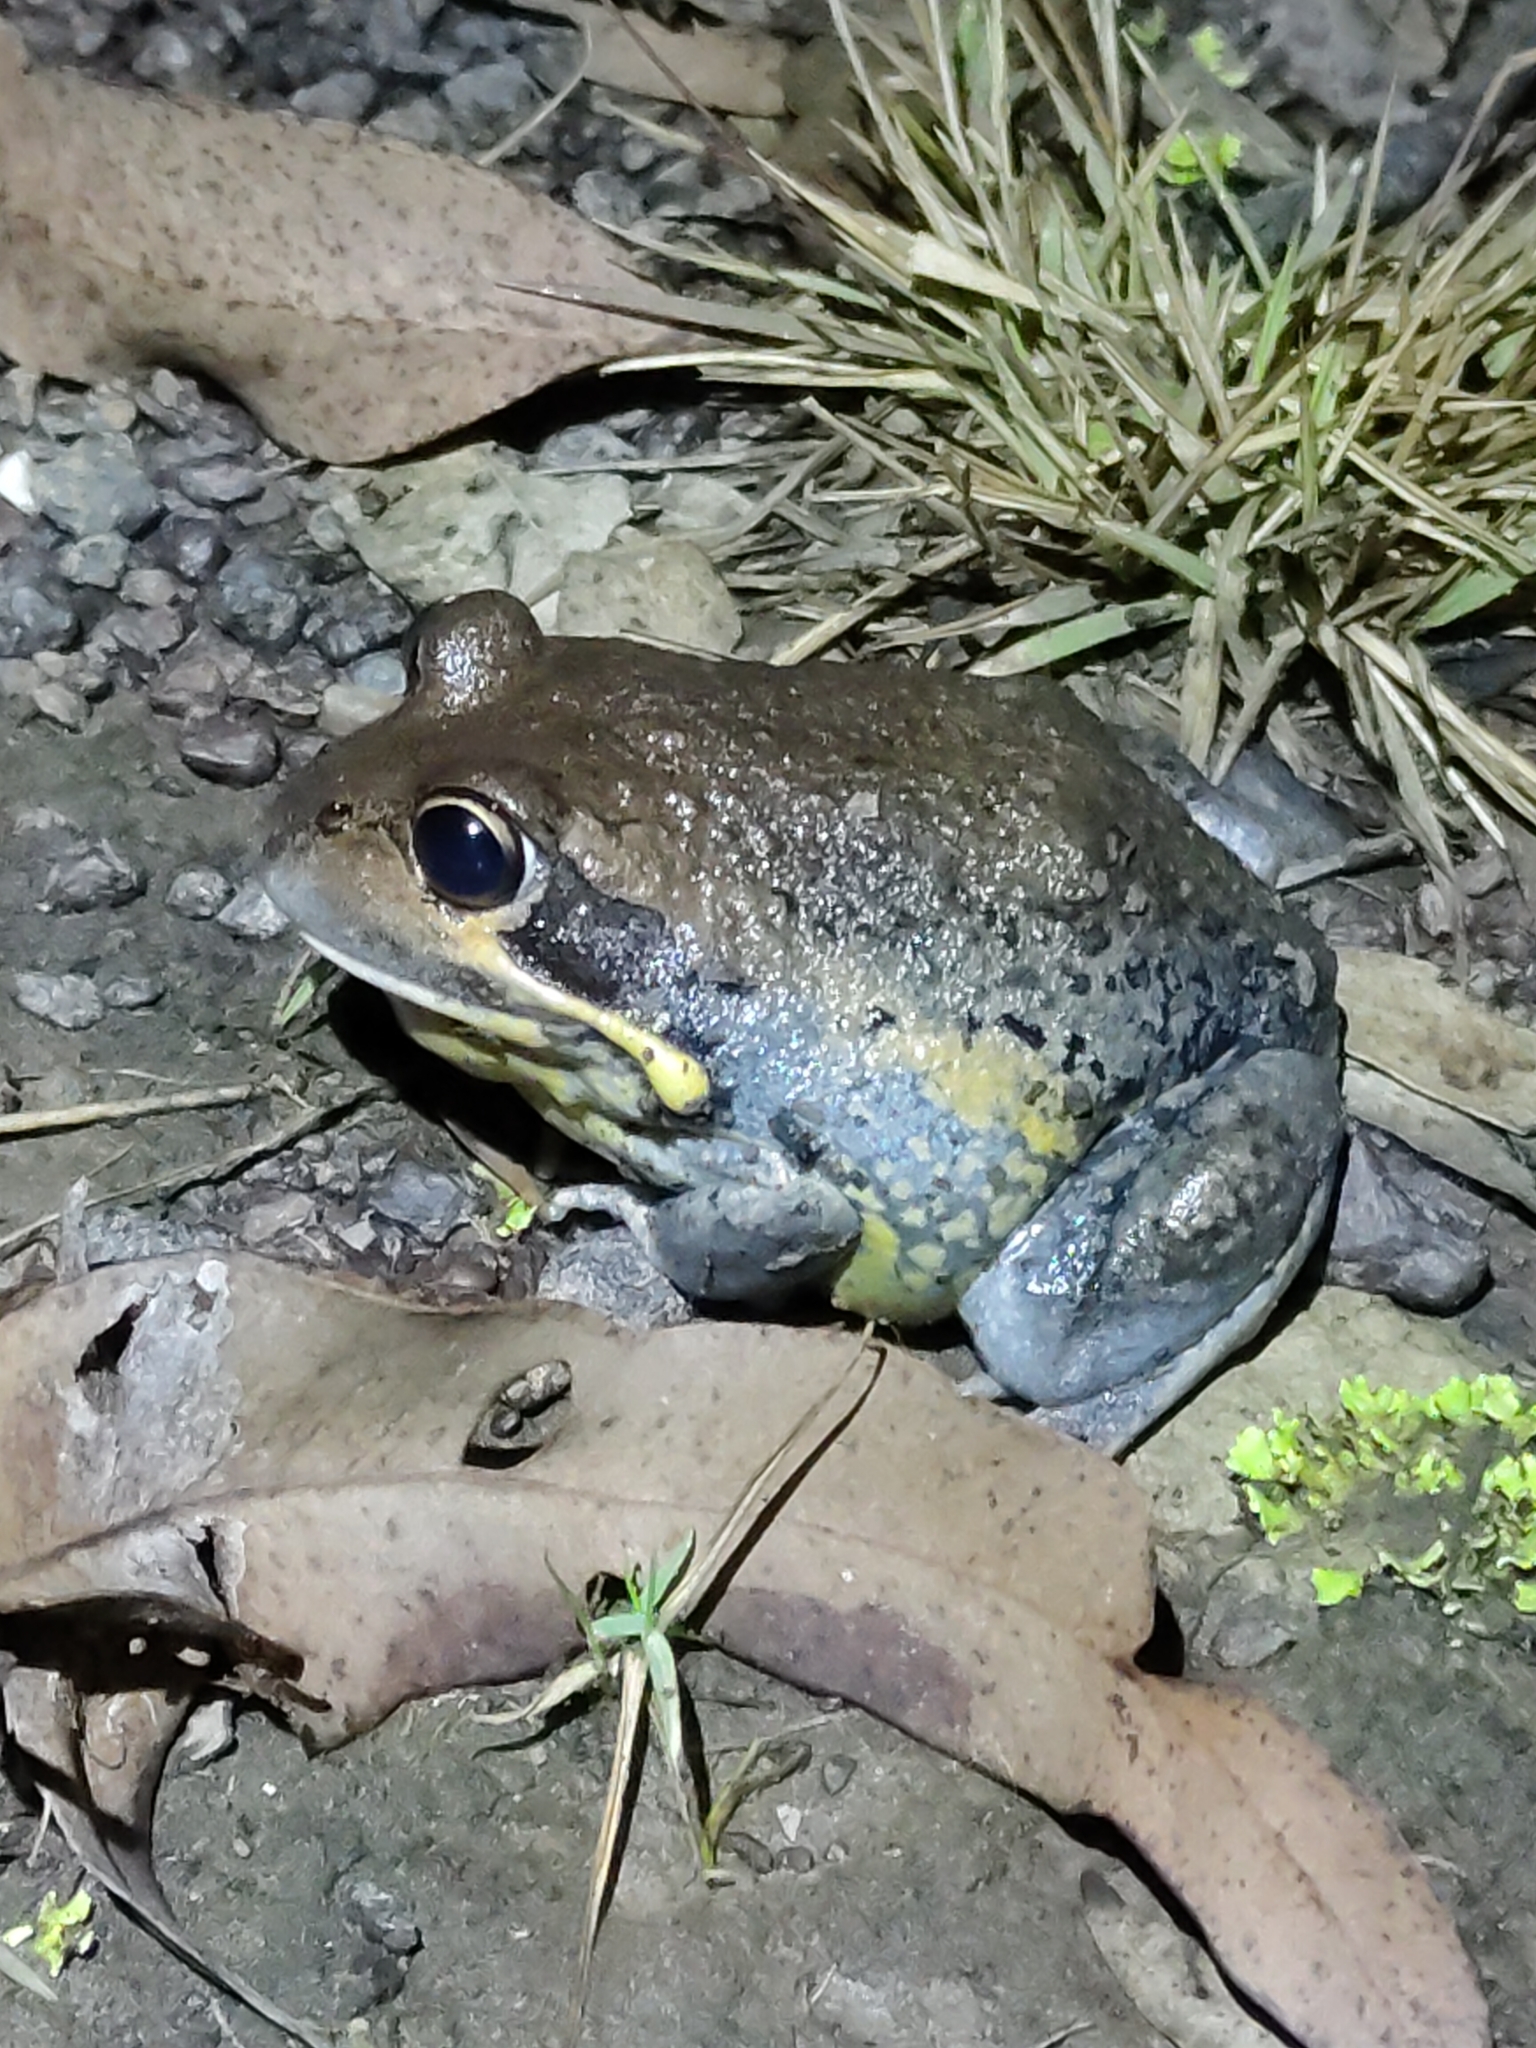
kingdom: Animalia
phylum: Chordata
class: Amphibia
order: Anura
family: Limnodynastidae
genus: Limnodynastes
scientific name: Limnodynastes terraereginae
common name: Northern banjo frog
